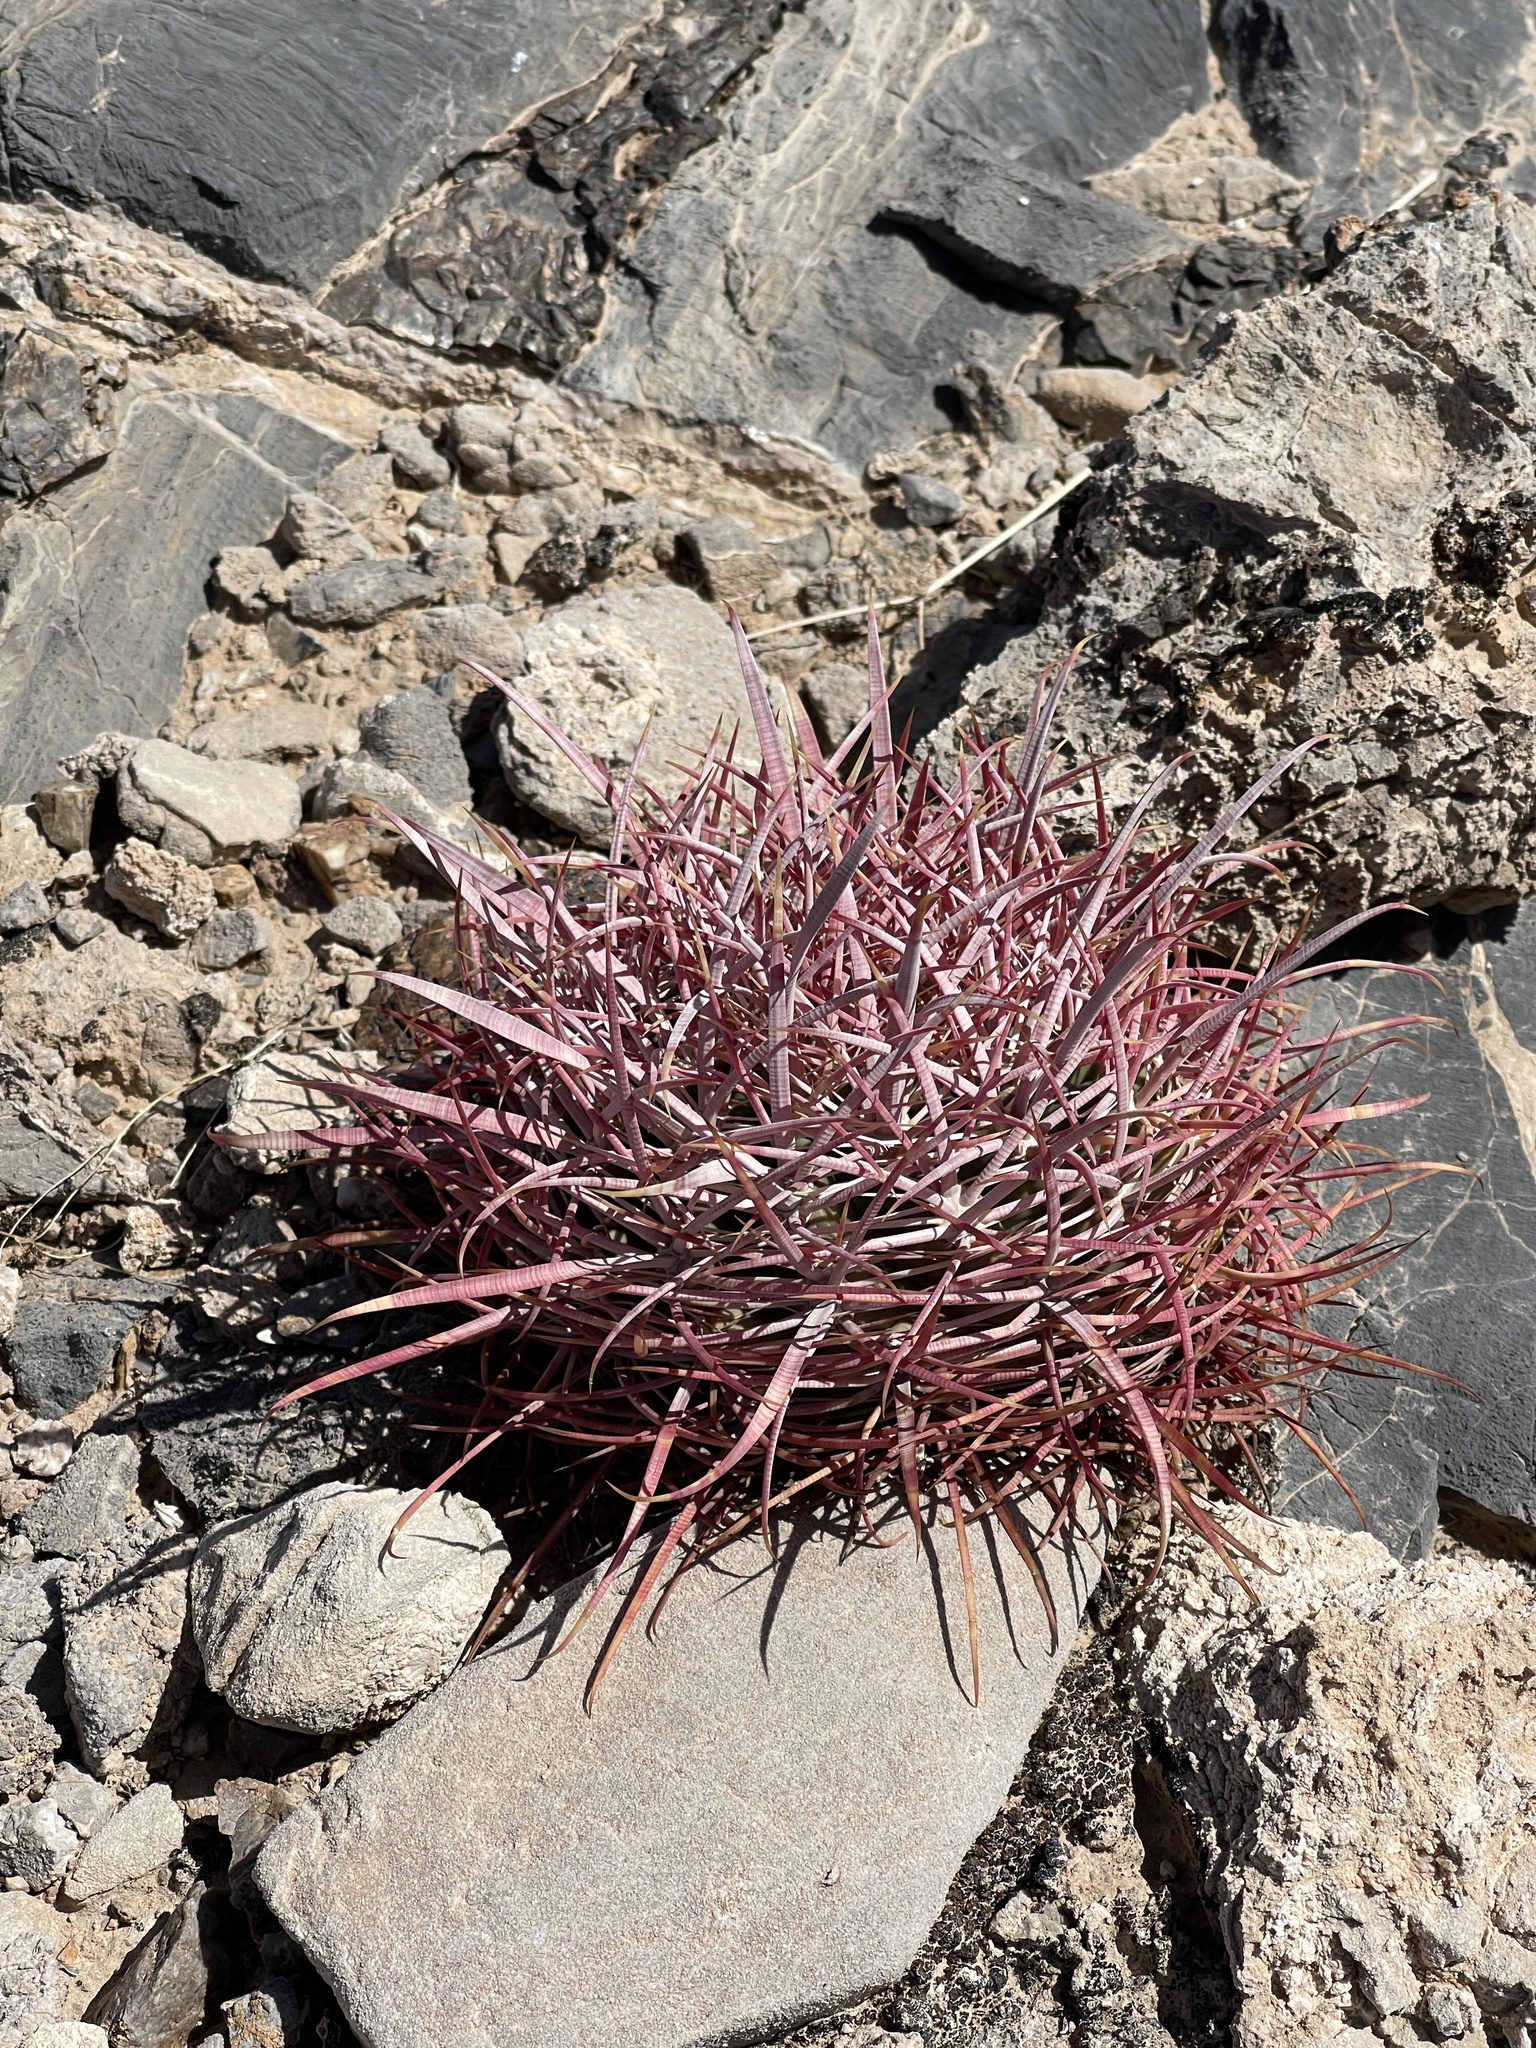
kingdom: Plantae
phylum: Tracheophyta
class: Magnoliopsida
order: Caryophyllales
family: Cactaceae
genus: Ferocactus
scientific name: Ferocactus cylindraceus
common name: California barrel cactus
